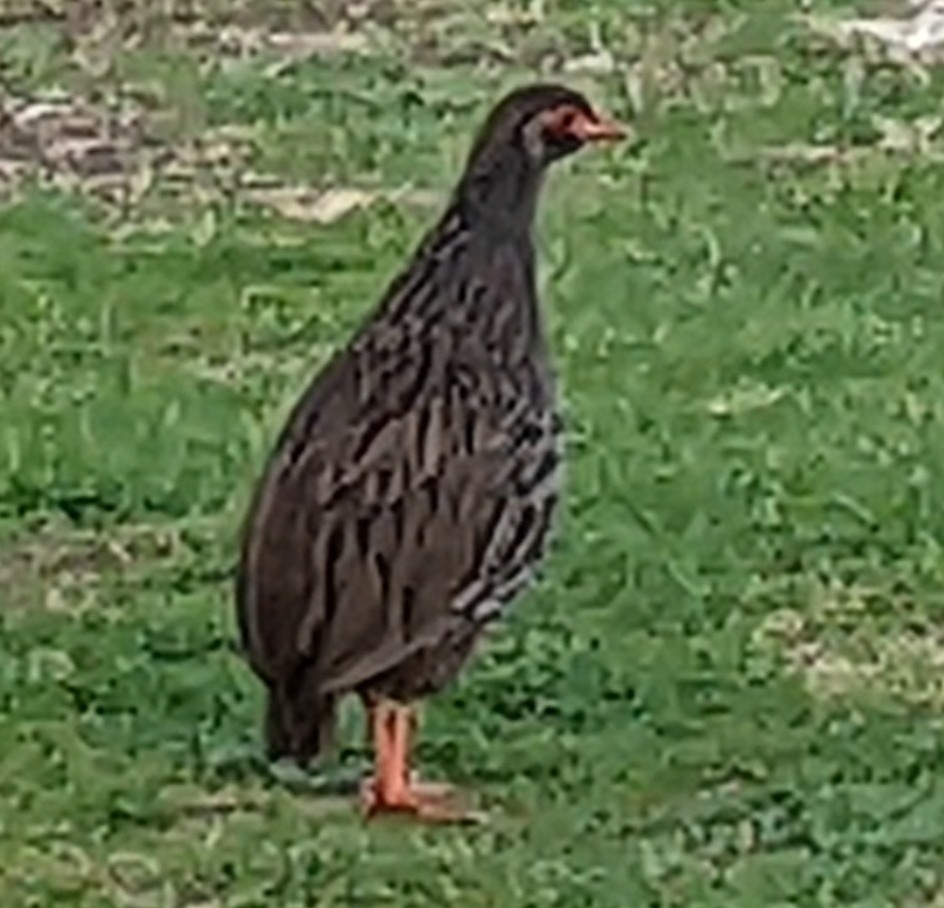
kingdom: Animalia
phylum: Chordata
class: Aves
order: Galliformes
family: Phasianidae
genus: Pternistis
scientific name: Pternistis afer
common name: Red-necked spurfowl
